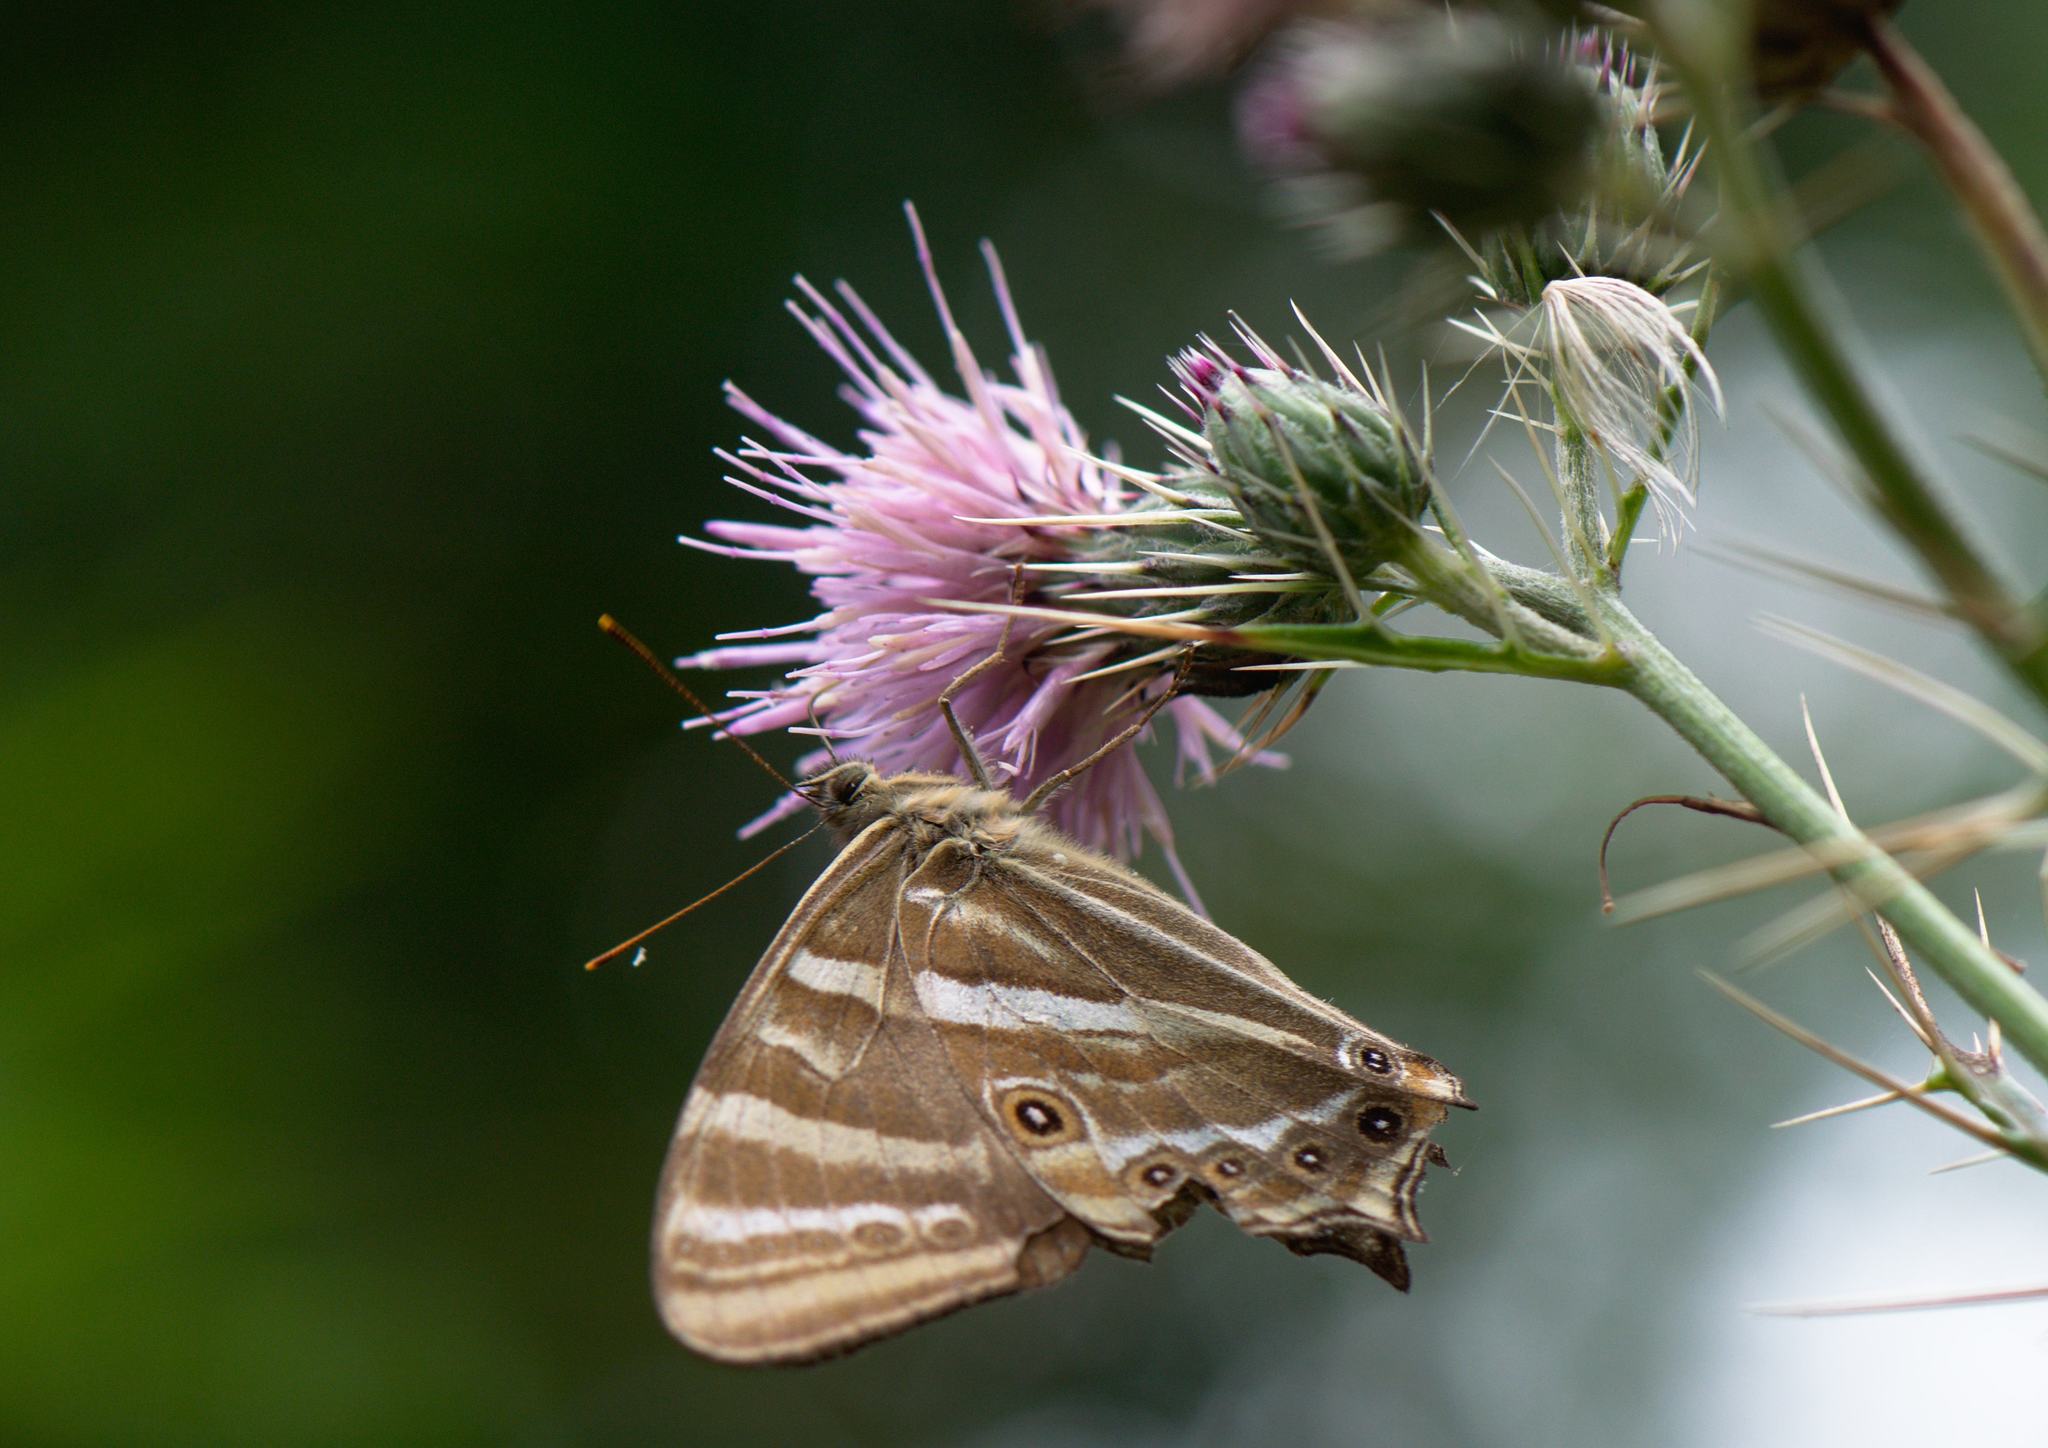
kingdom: Animalia
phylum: Arthropoda
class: Insecta
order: Lepidoptera
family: Nymphalidae
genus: Lethe
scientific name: Lethe baladeva
